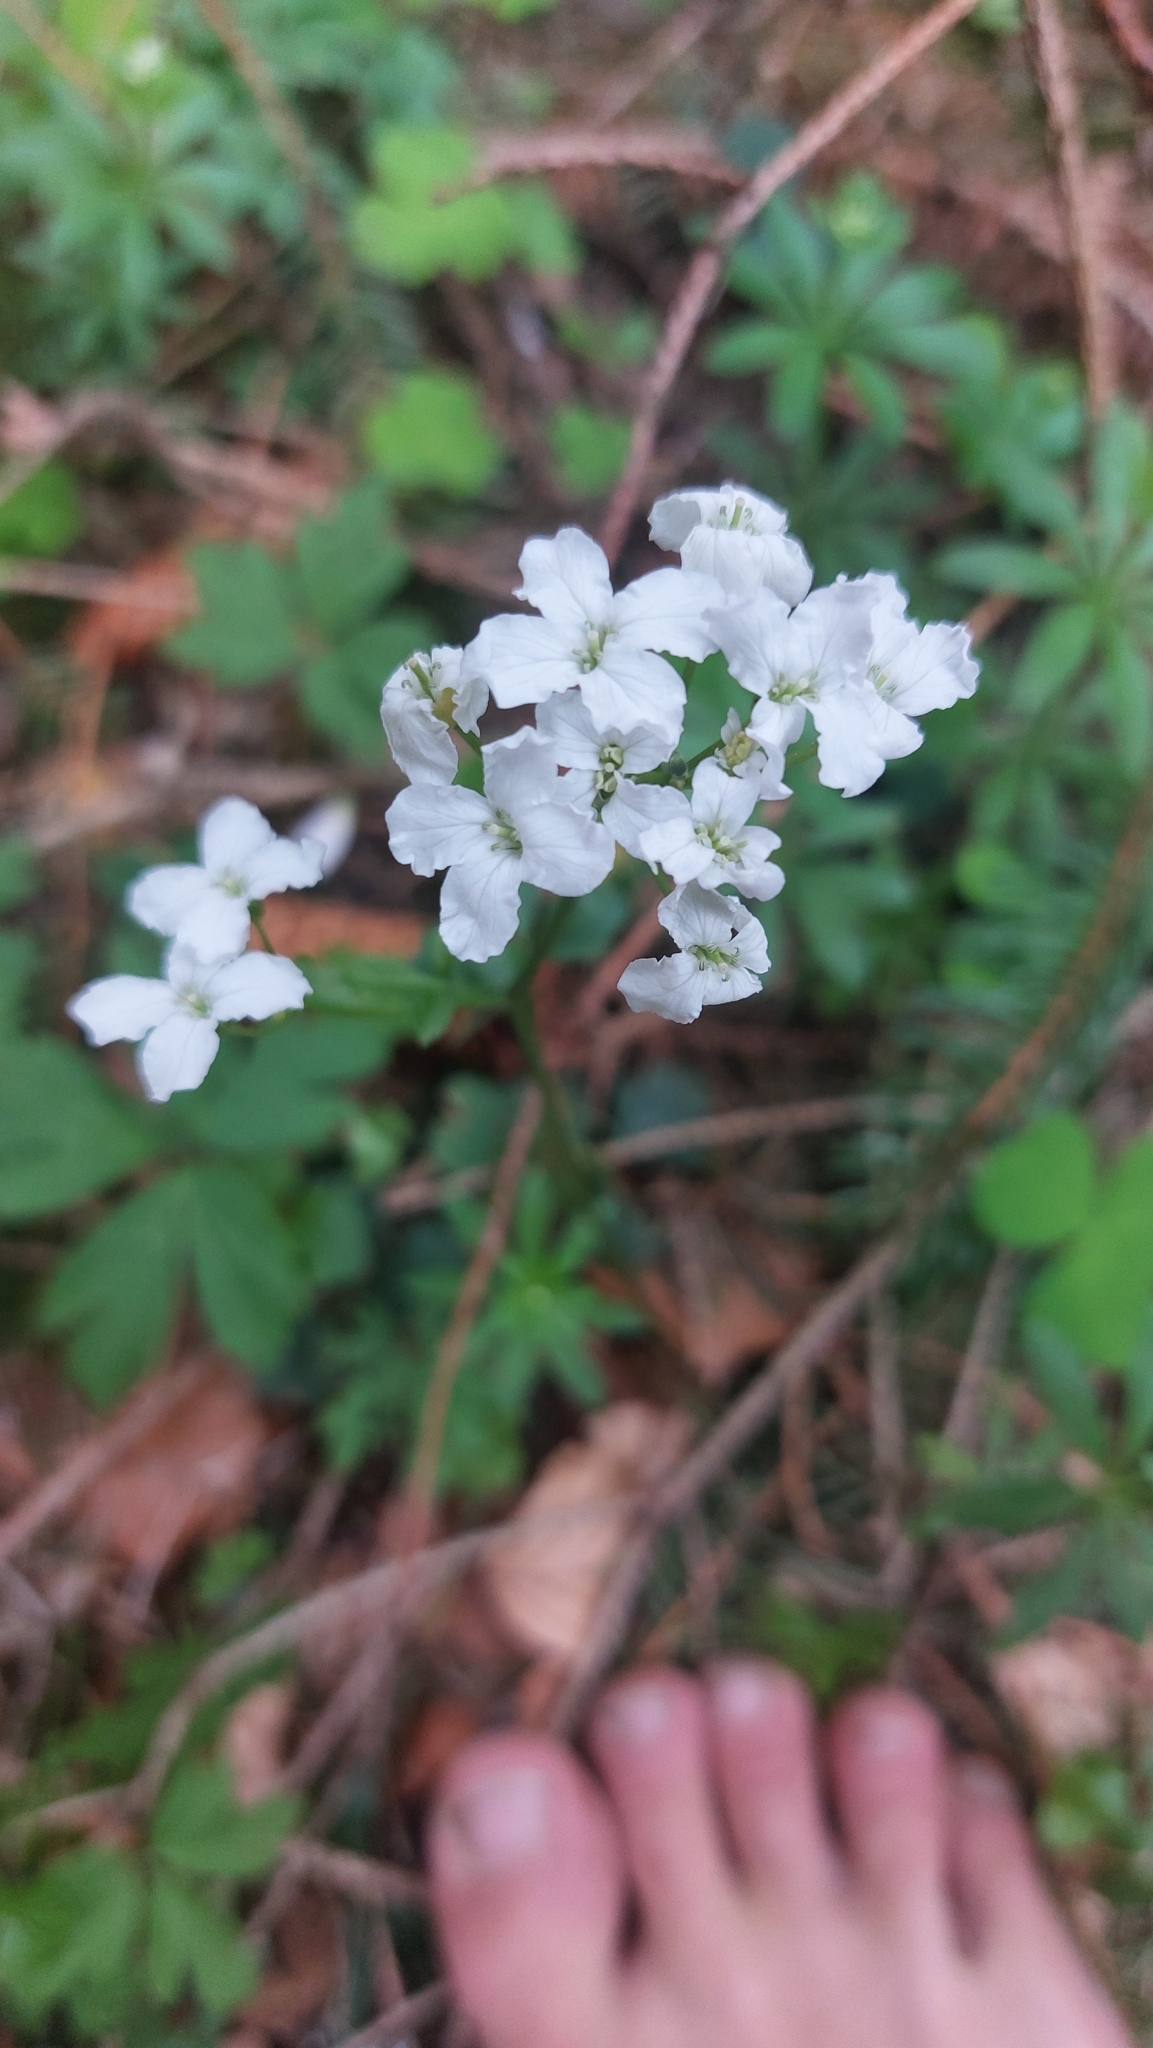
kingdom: Plantae
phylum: Tracheophyta
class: Magnoliopsida
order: Brassicales
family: Brassicaceae
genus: Cardamine
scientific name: Cardamine trifolia
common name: Trefoil cress
